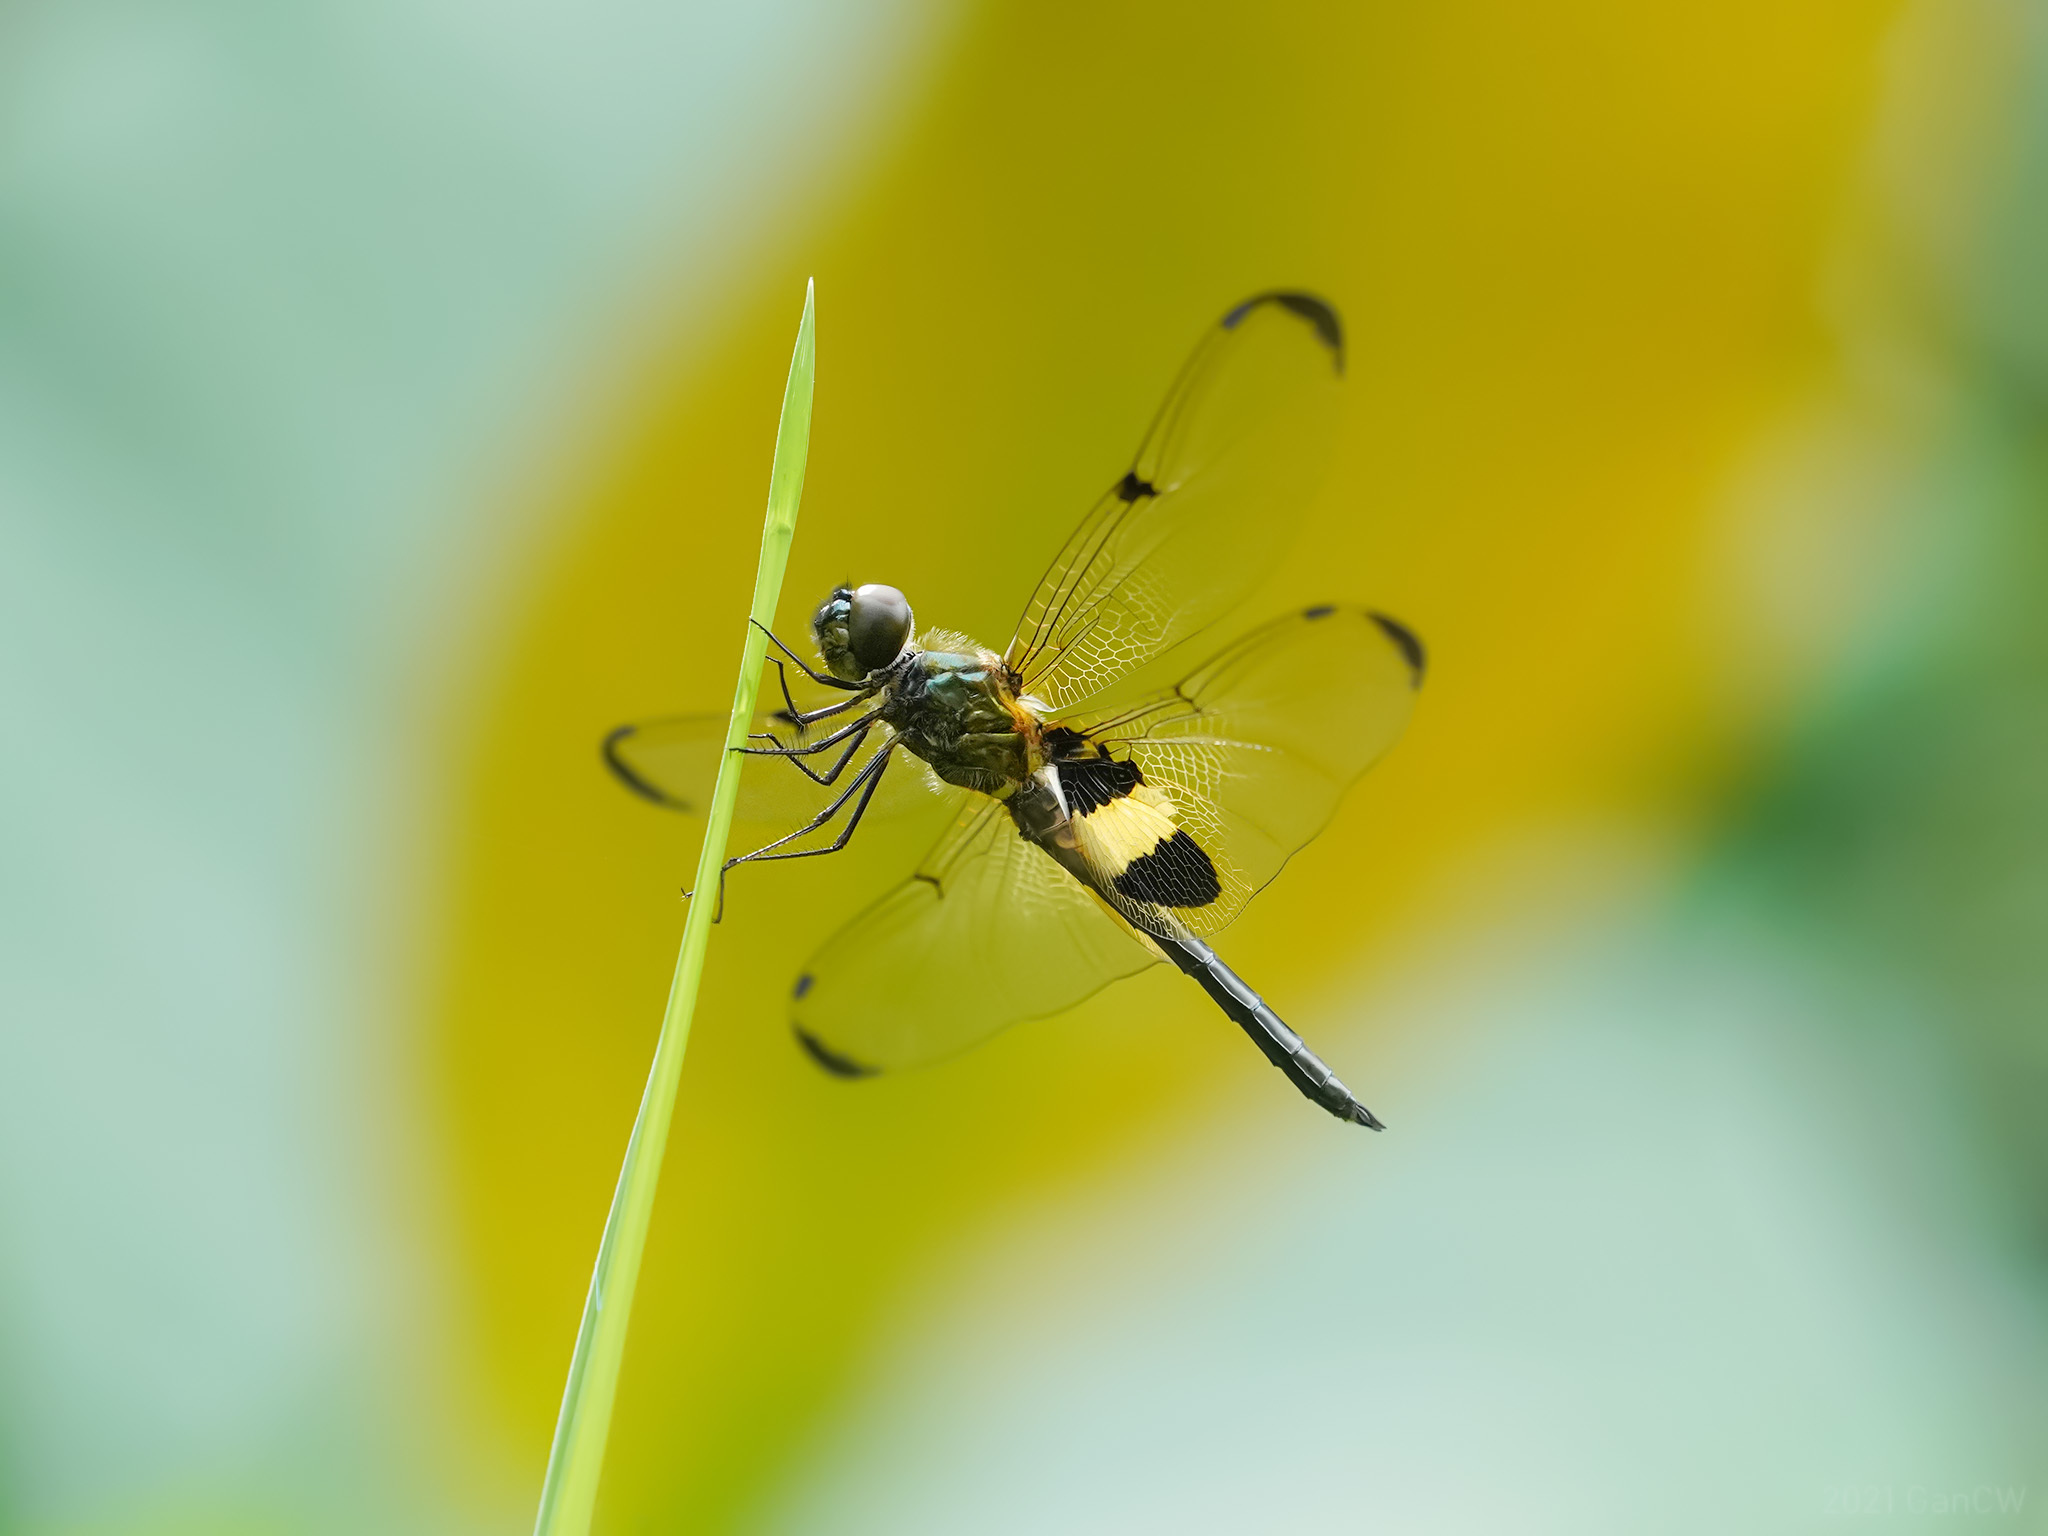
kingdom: Animalia
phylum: Arthropoda
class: Insecta
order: Odonata
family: Libellulidae
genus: Rhyothemis
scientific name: Rhyothemis phyllis
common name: Yellow-barred flutterer
